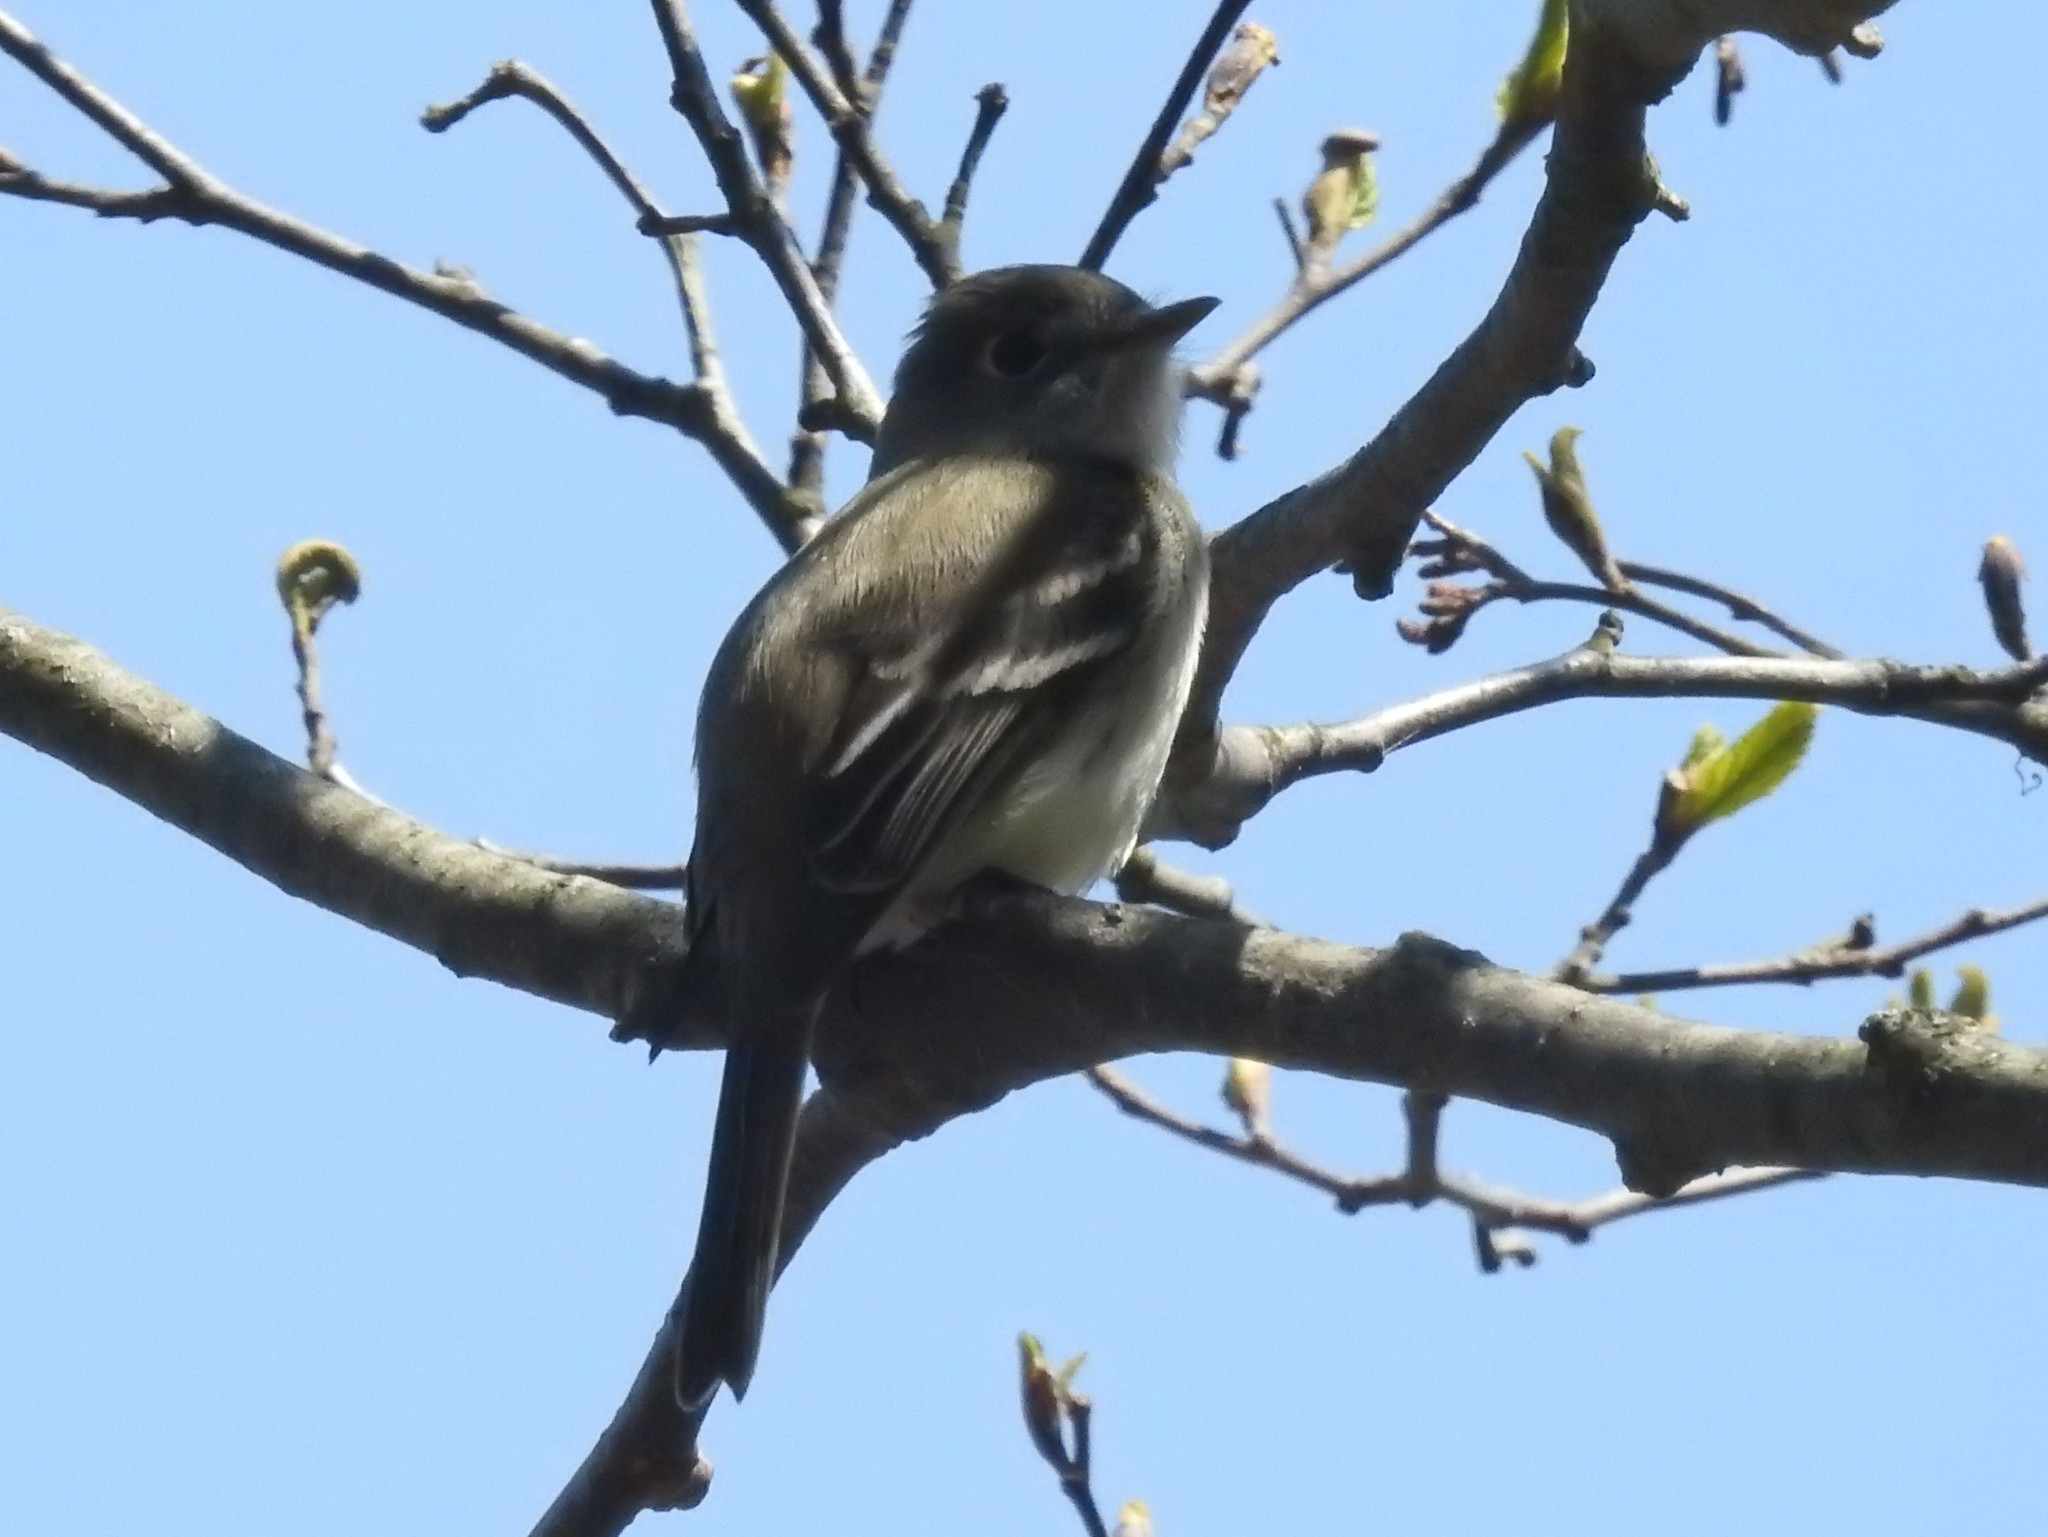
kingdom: Animalia
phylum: Chordata
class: Aves
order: Passeriformes
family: Tyrannidae
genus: Empidonax
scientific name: Empidonax minimus
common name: Least flycatcher
